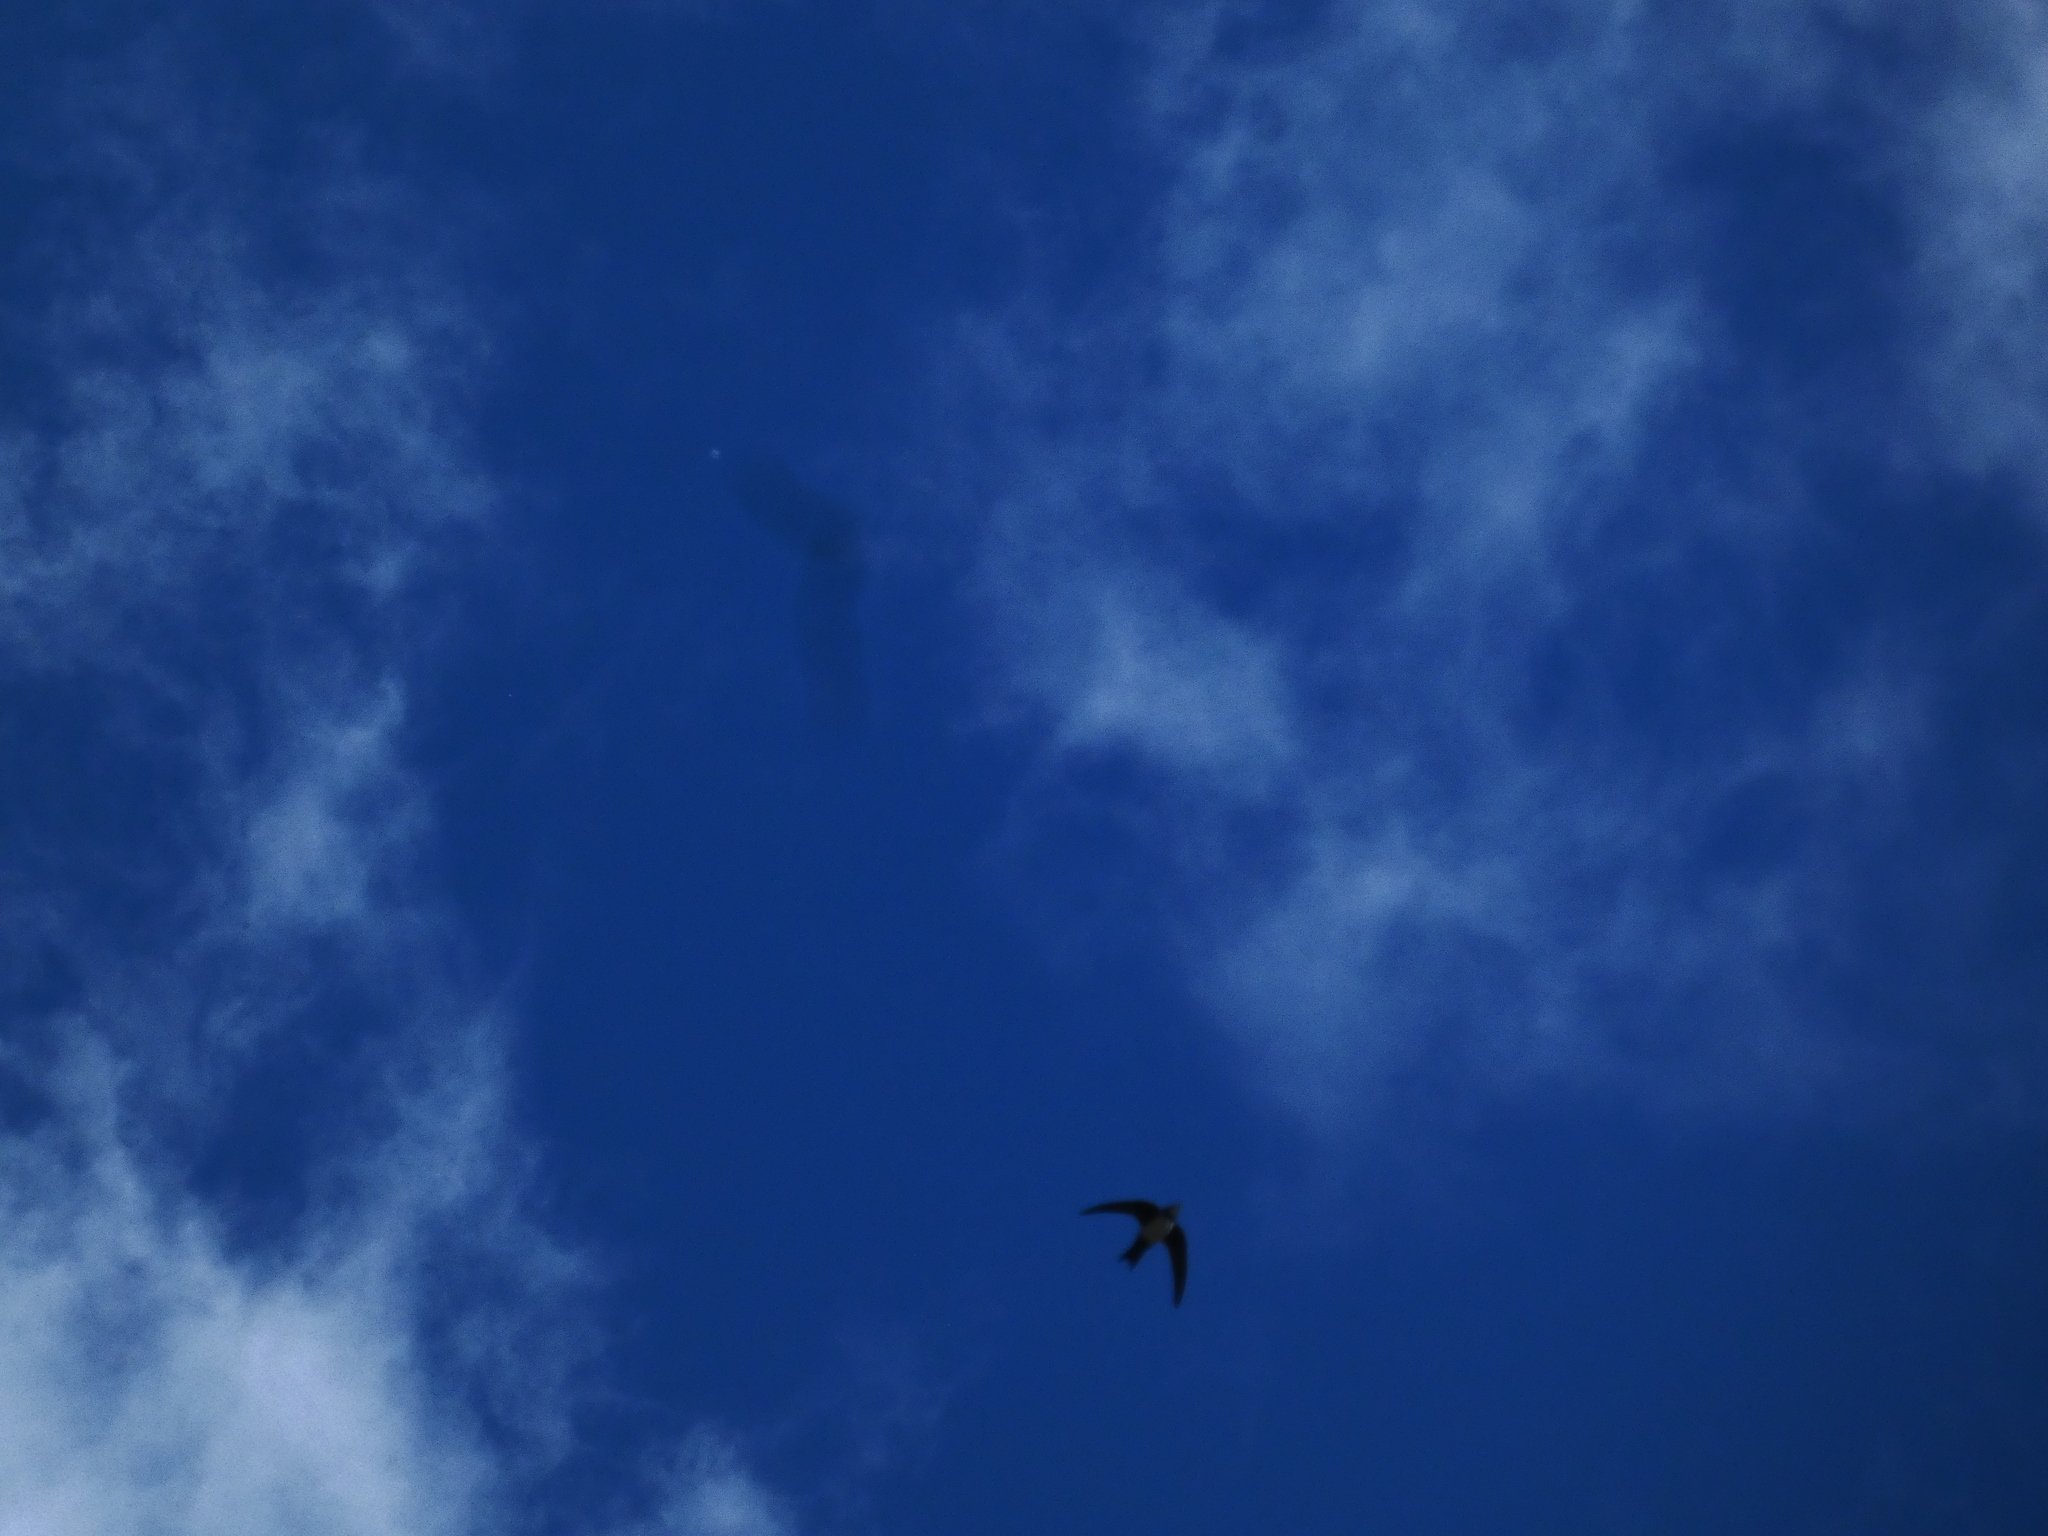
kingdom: Animalia
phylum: Chordata
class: Aves
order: Apodiformes
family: Apodidae
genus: Tachymarptis
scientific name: Tachymarptis melba
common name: Alpine swift
